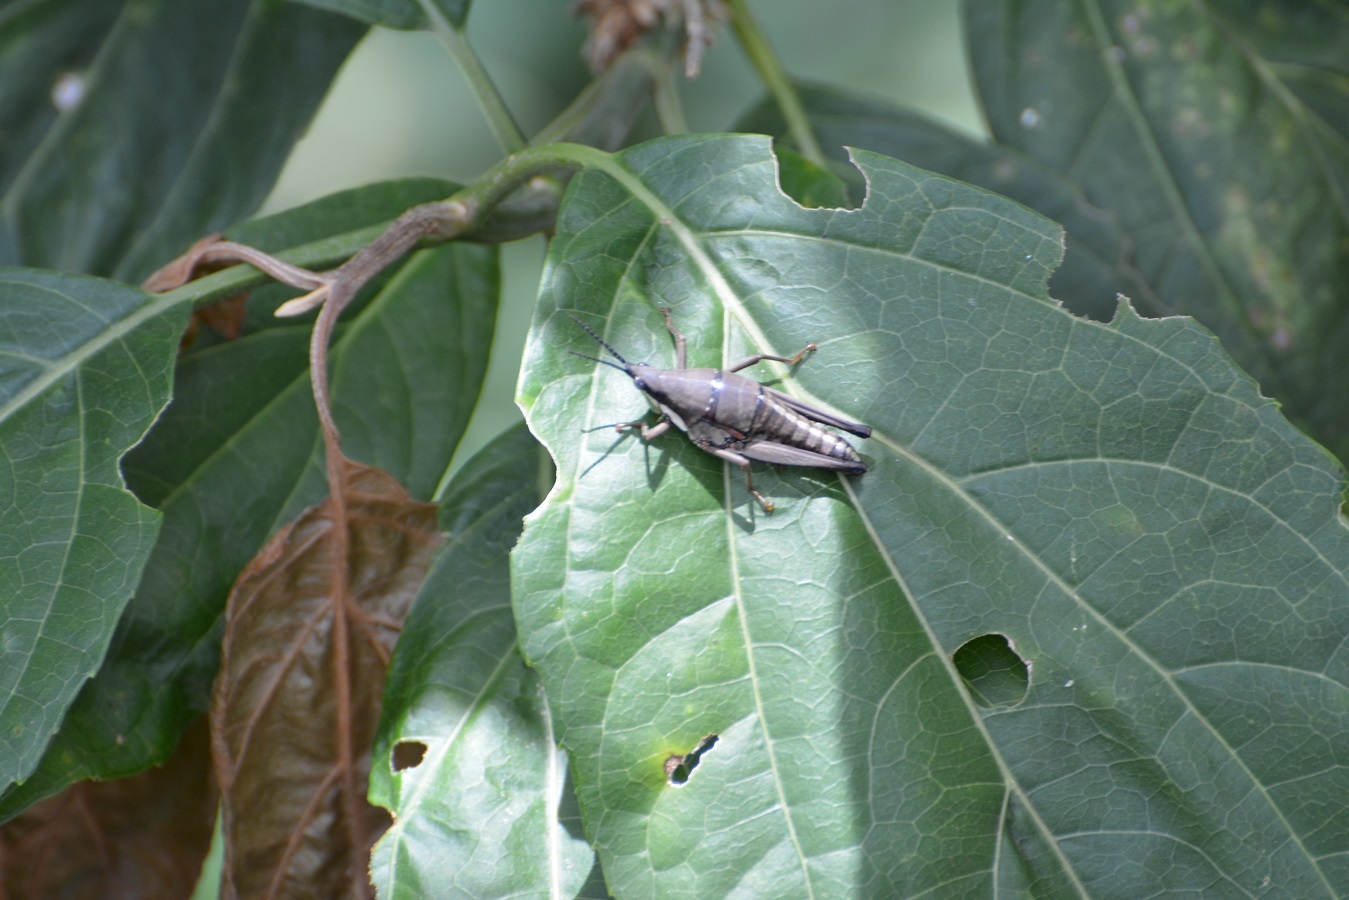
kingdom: Animalia
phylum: Arthropoda
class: Insecta
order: Orthoptera
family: Pyrgomorphidae
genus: Sphenarium
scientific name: Sphenarium histrio
